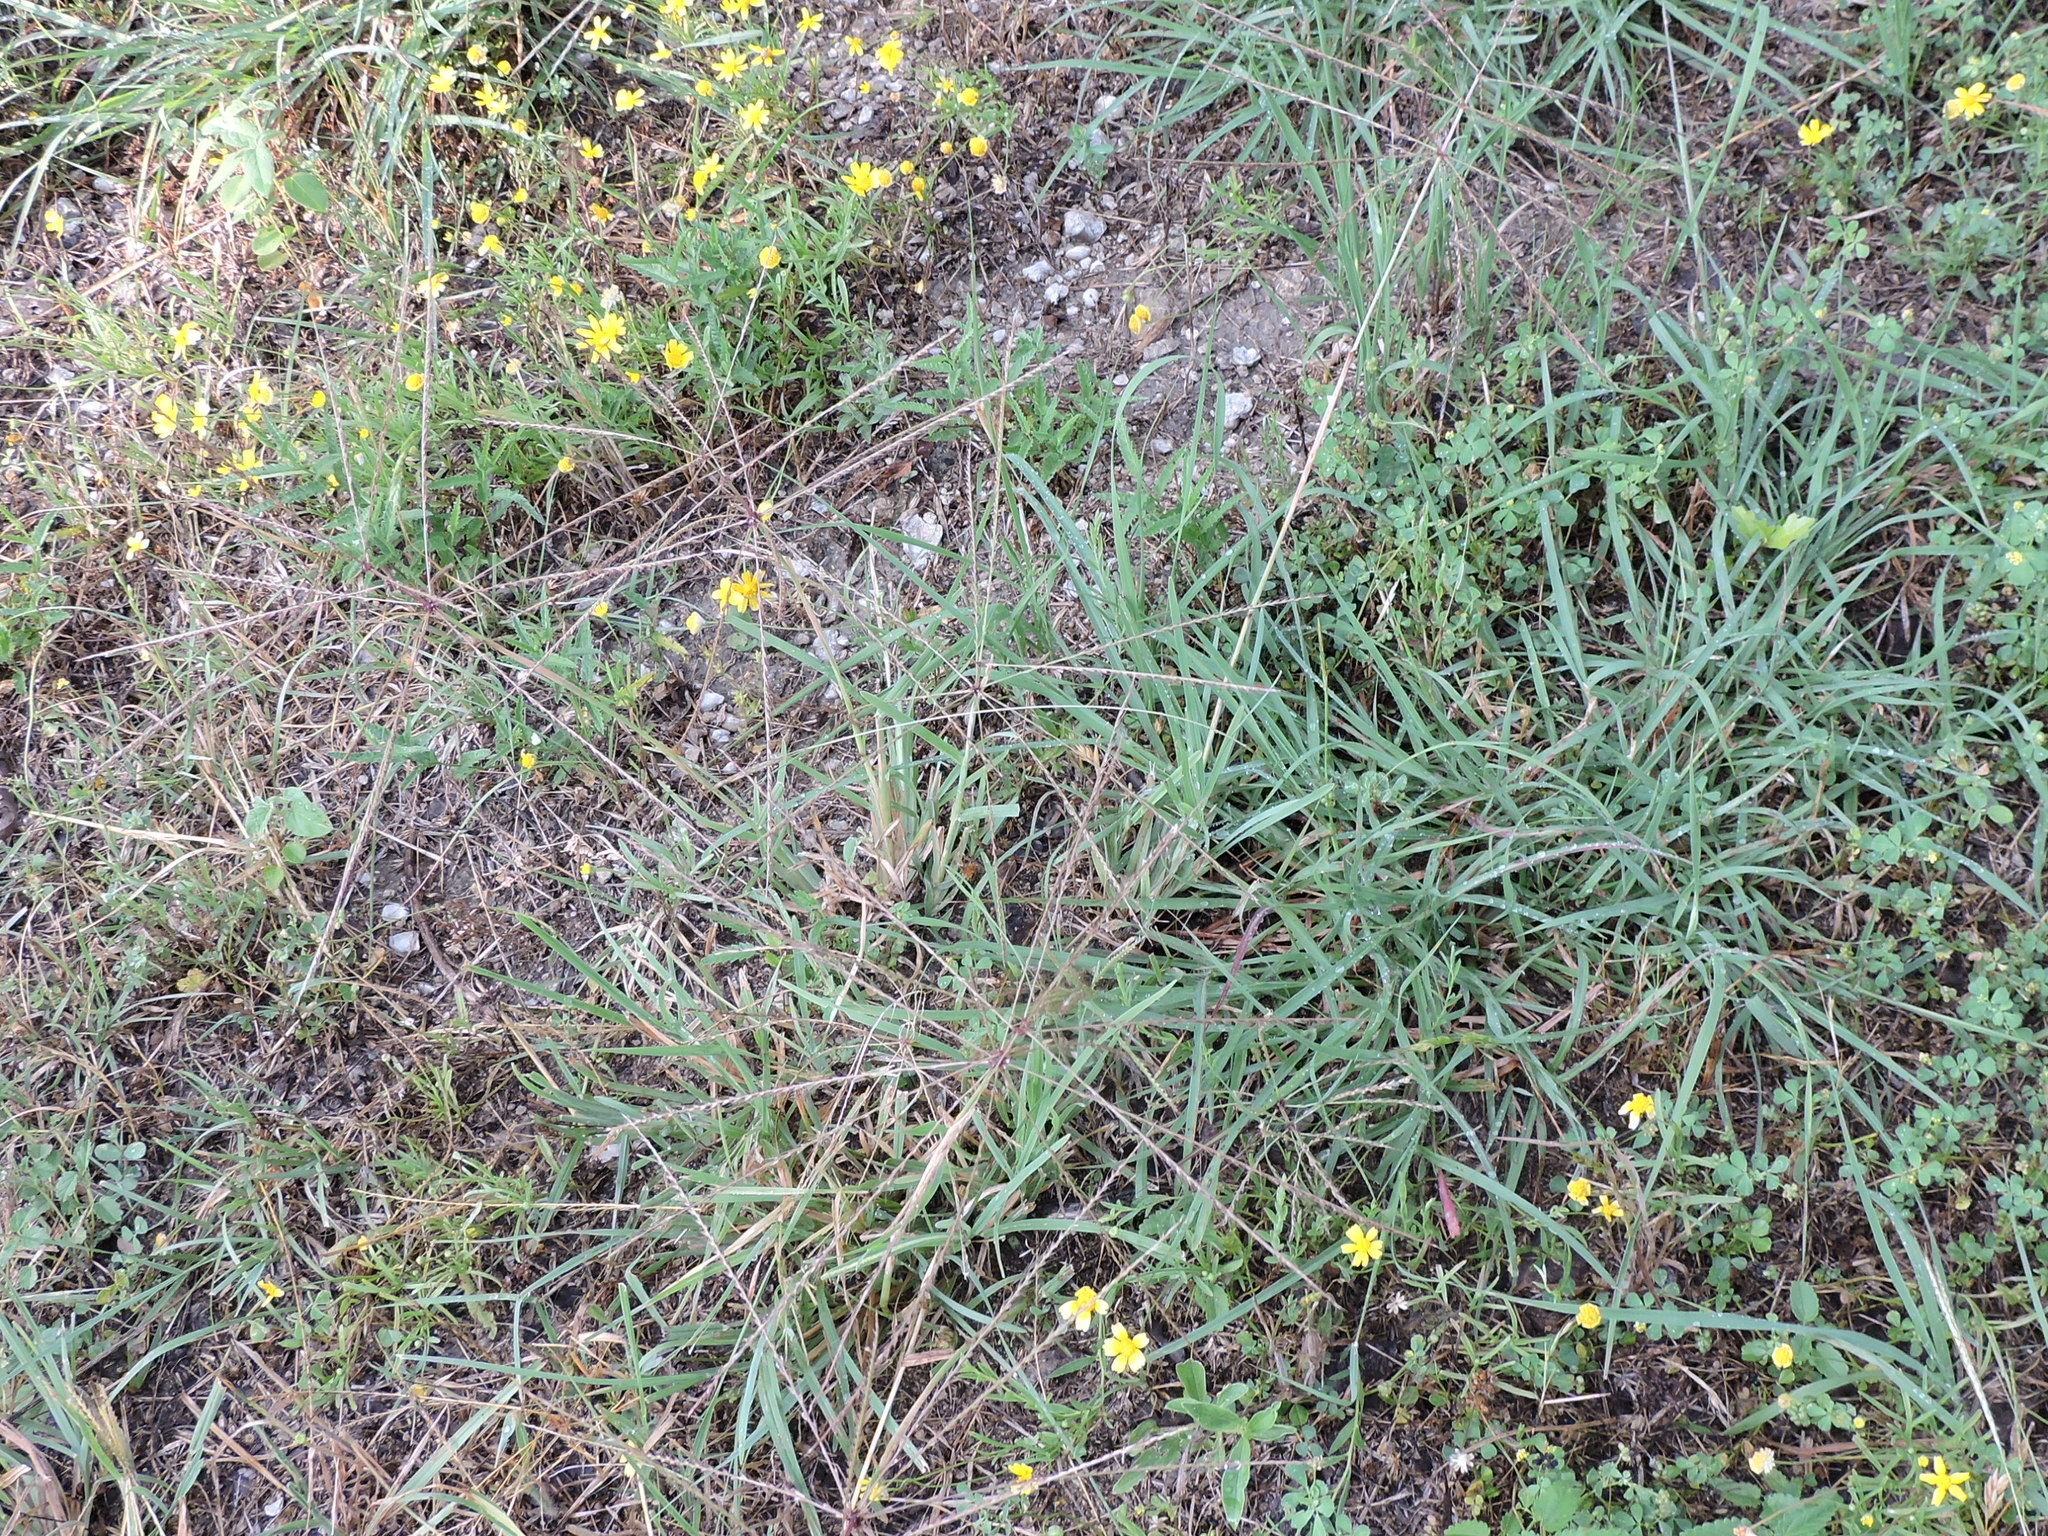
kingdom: Plantae
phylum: Tracheophyta
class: Liliopsida
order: Poales
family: Poaceae
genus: Chloris
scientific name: Chloris verticillata
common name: Tumble windmill grass
